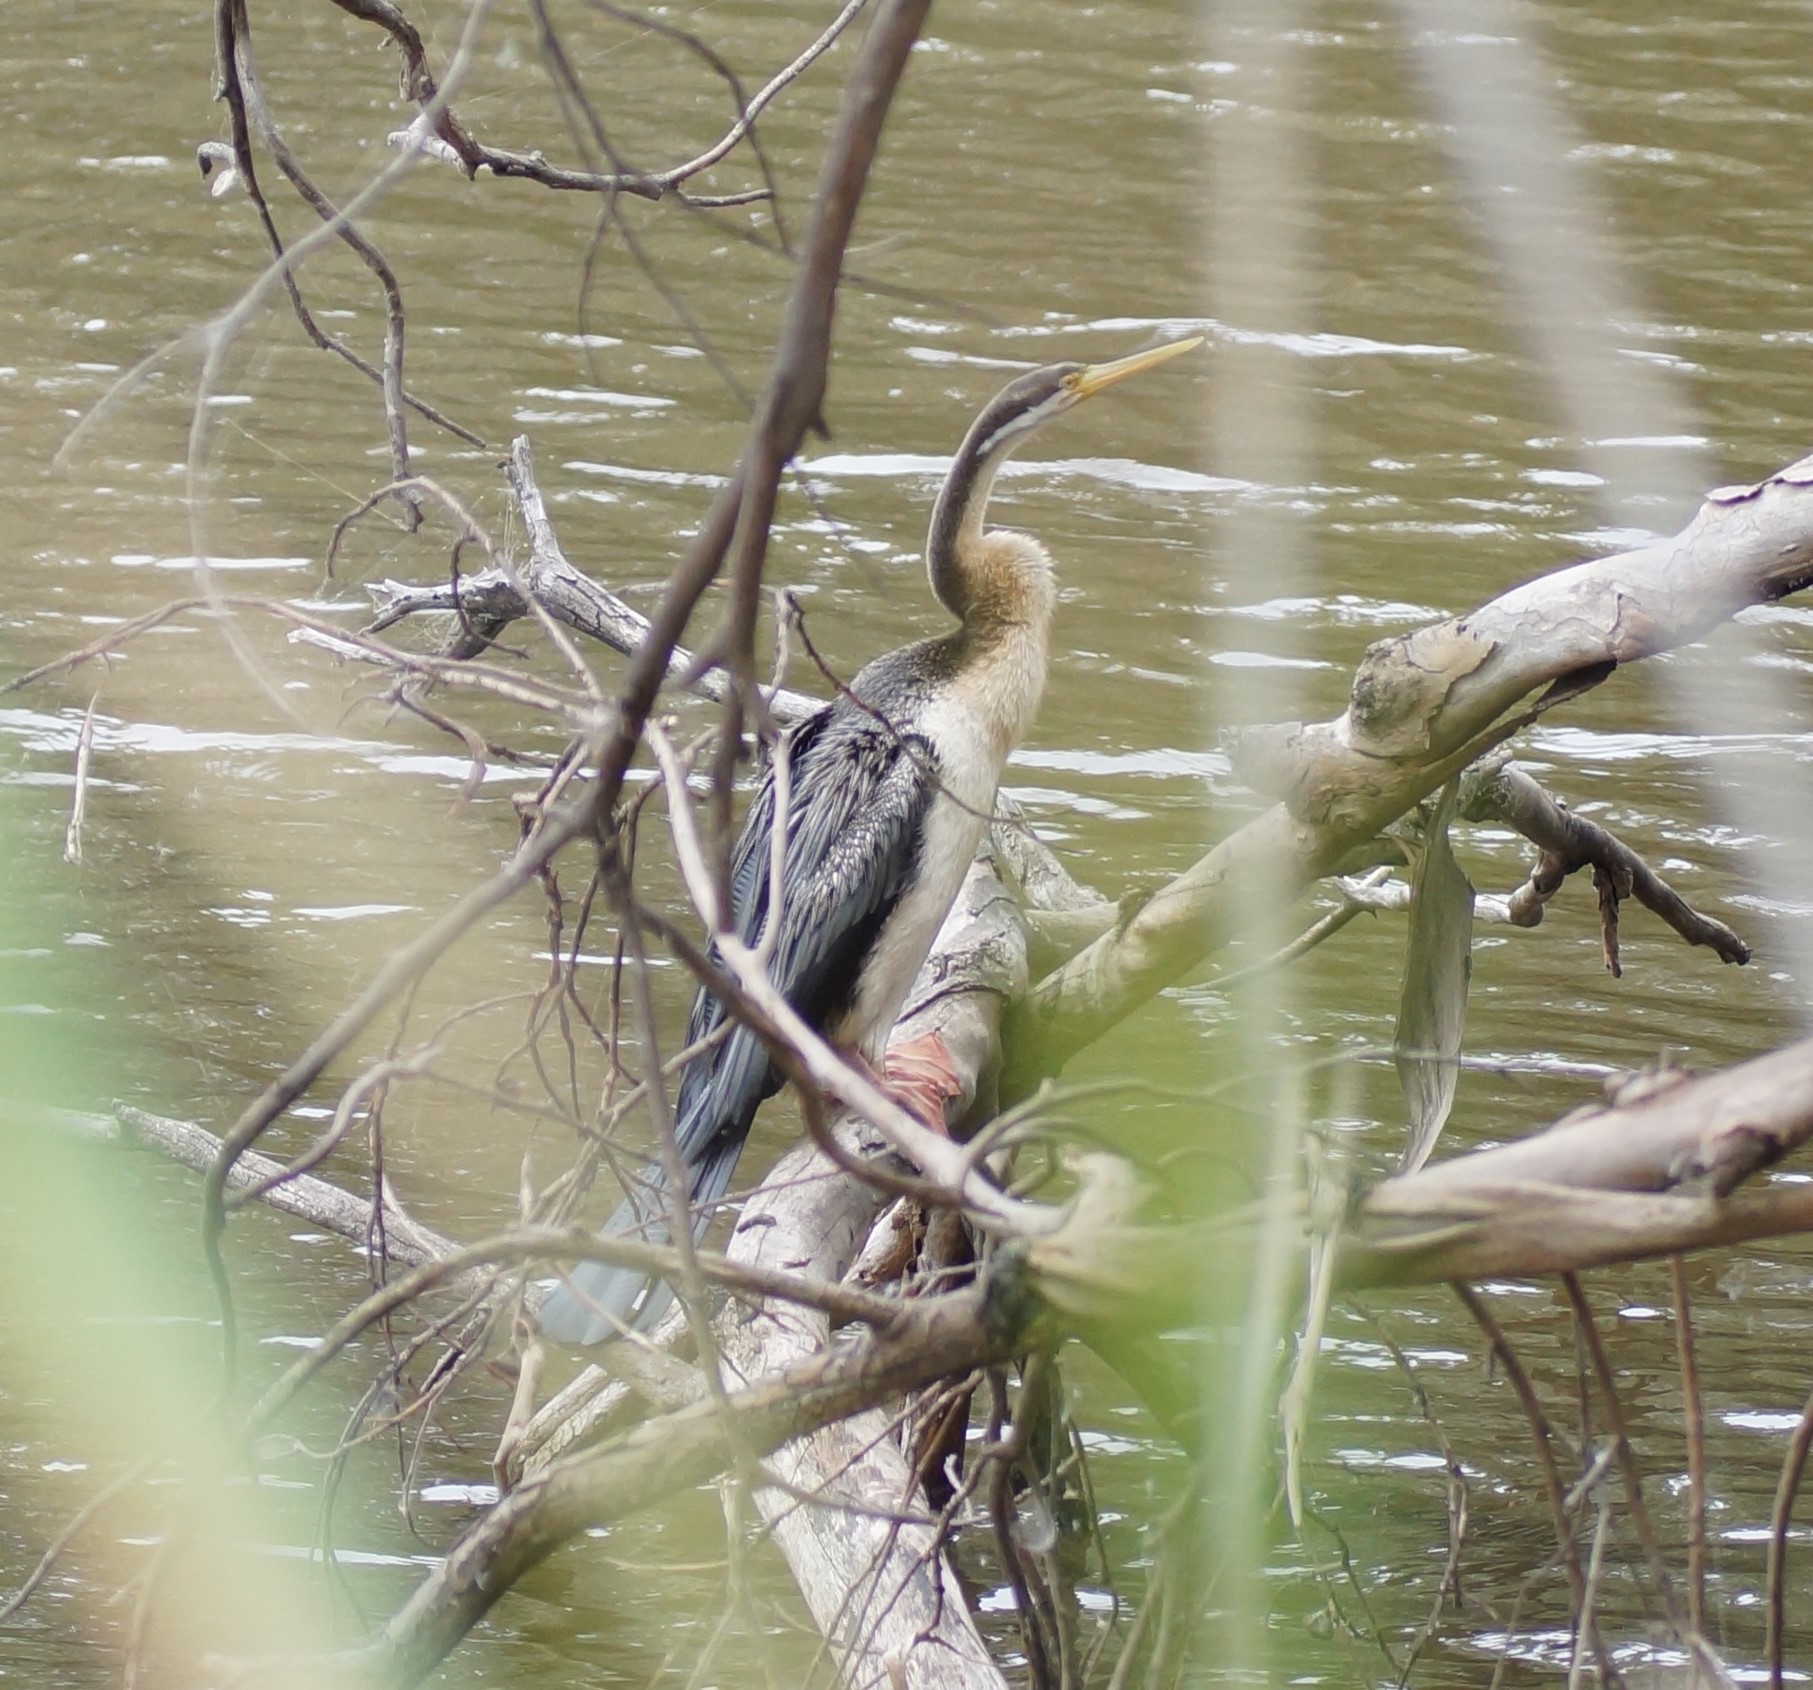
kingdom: Animalia
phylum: Chordata
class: Aves
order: Suliformes
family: Anhingidae
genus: Anhinga
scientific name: Anhinga novaehollandiae
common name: Australasian darter
